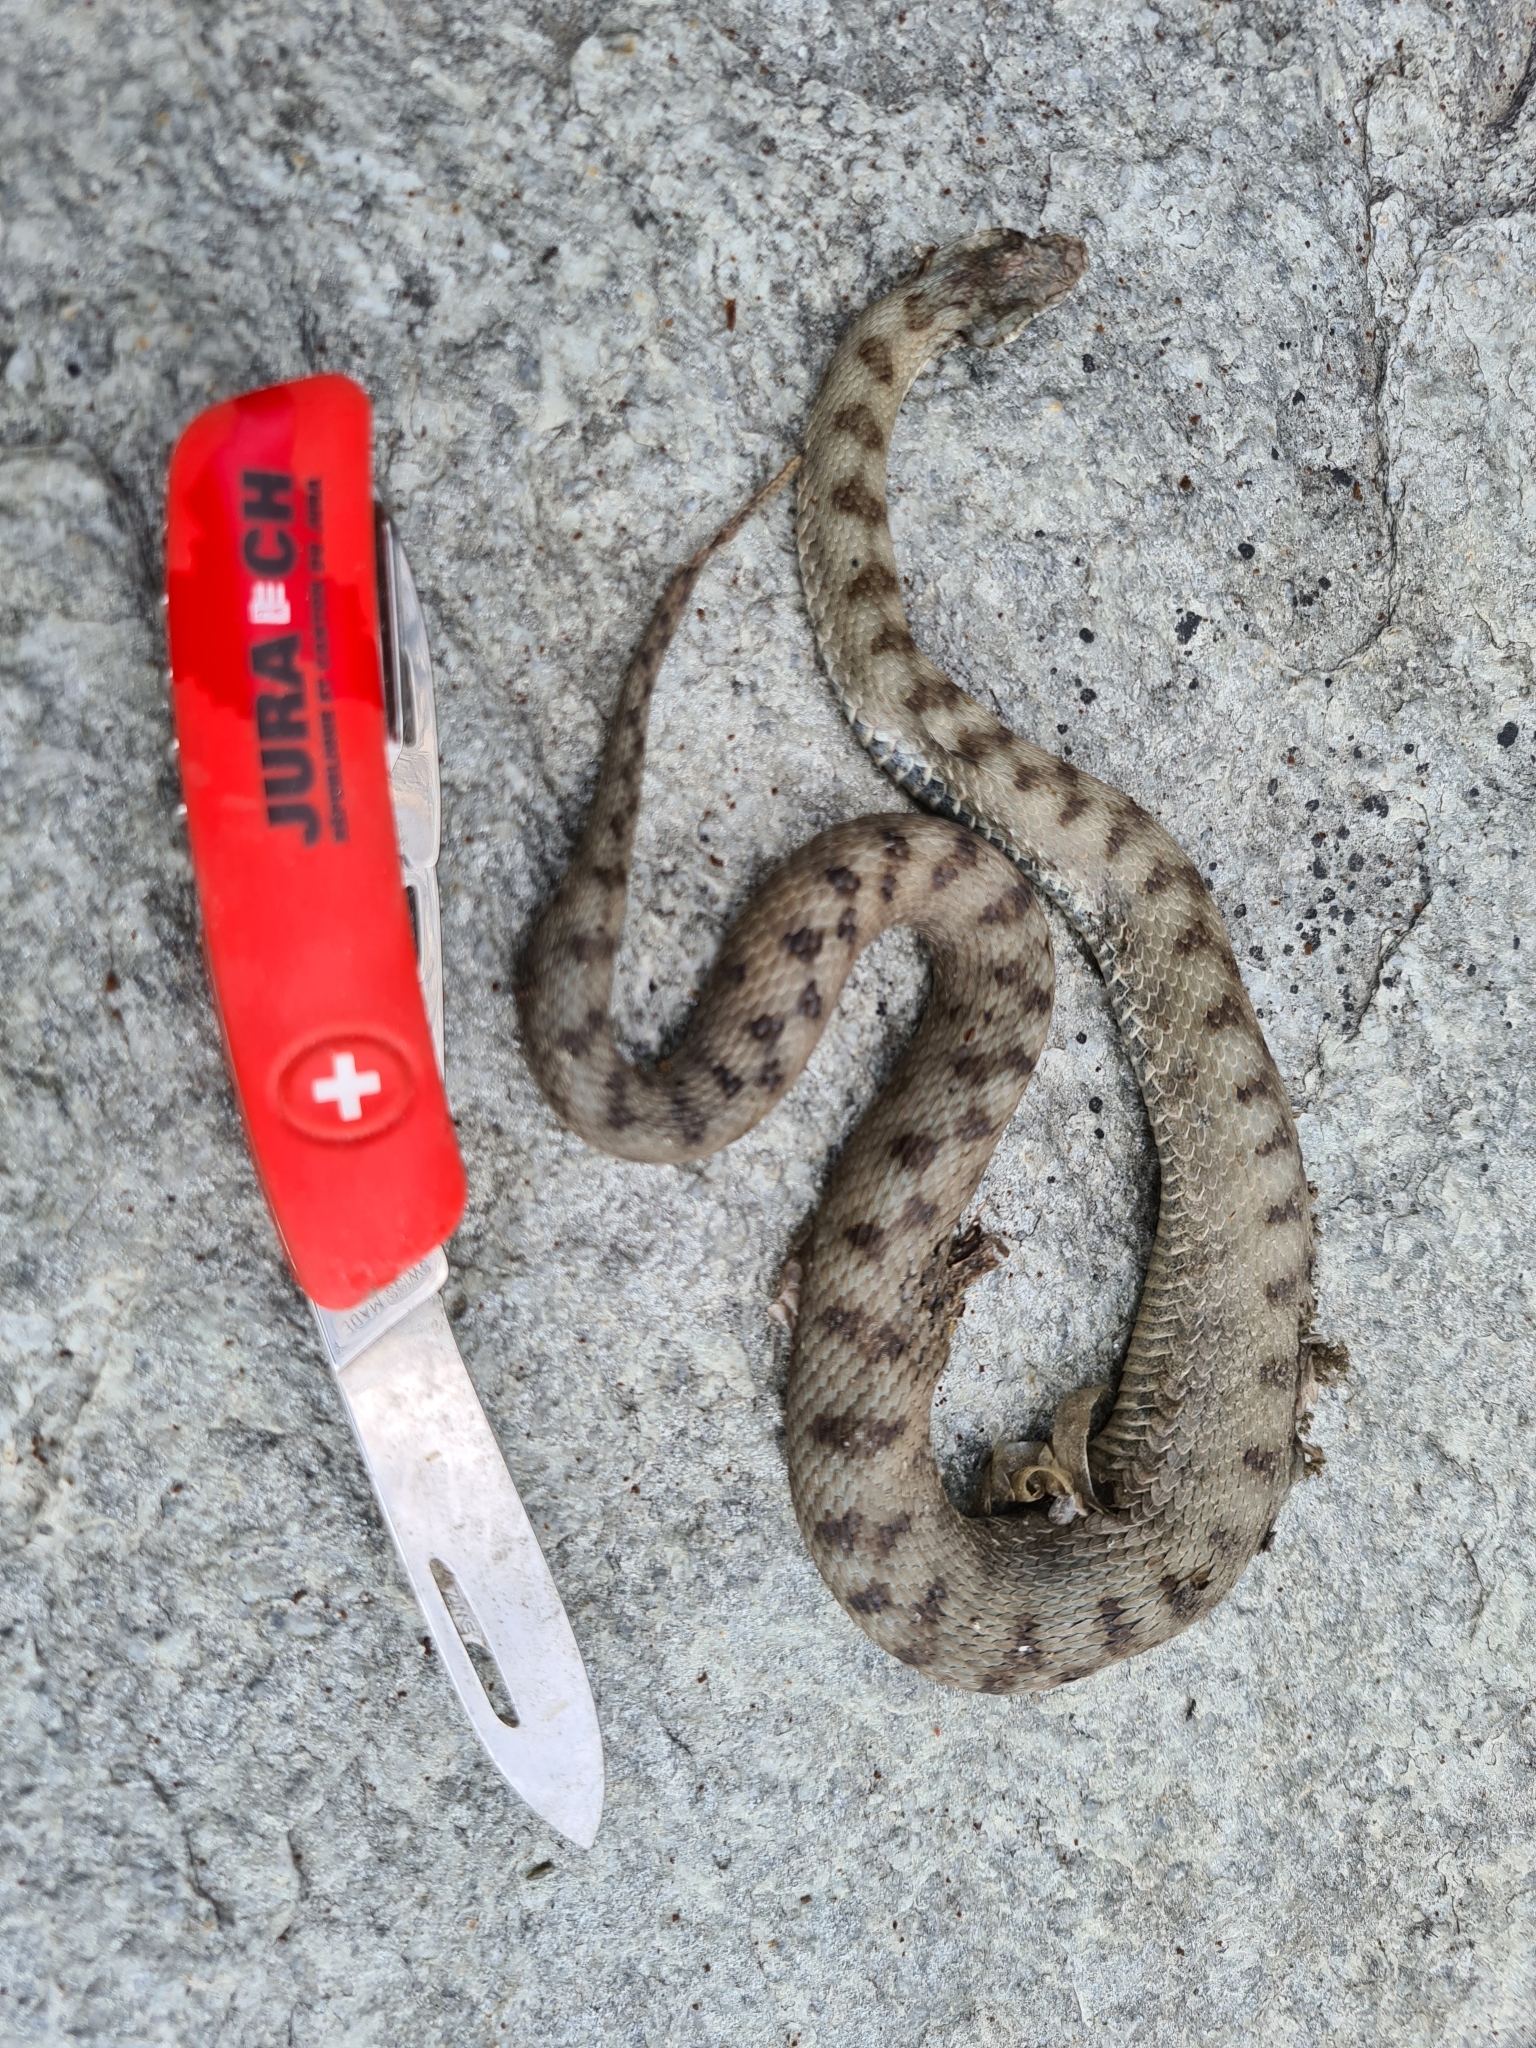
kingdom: Animalia
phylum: Chordata
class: Squamata
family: Viperidae
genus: Vipera
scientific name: Vipera aspis
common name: Asp viper
